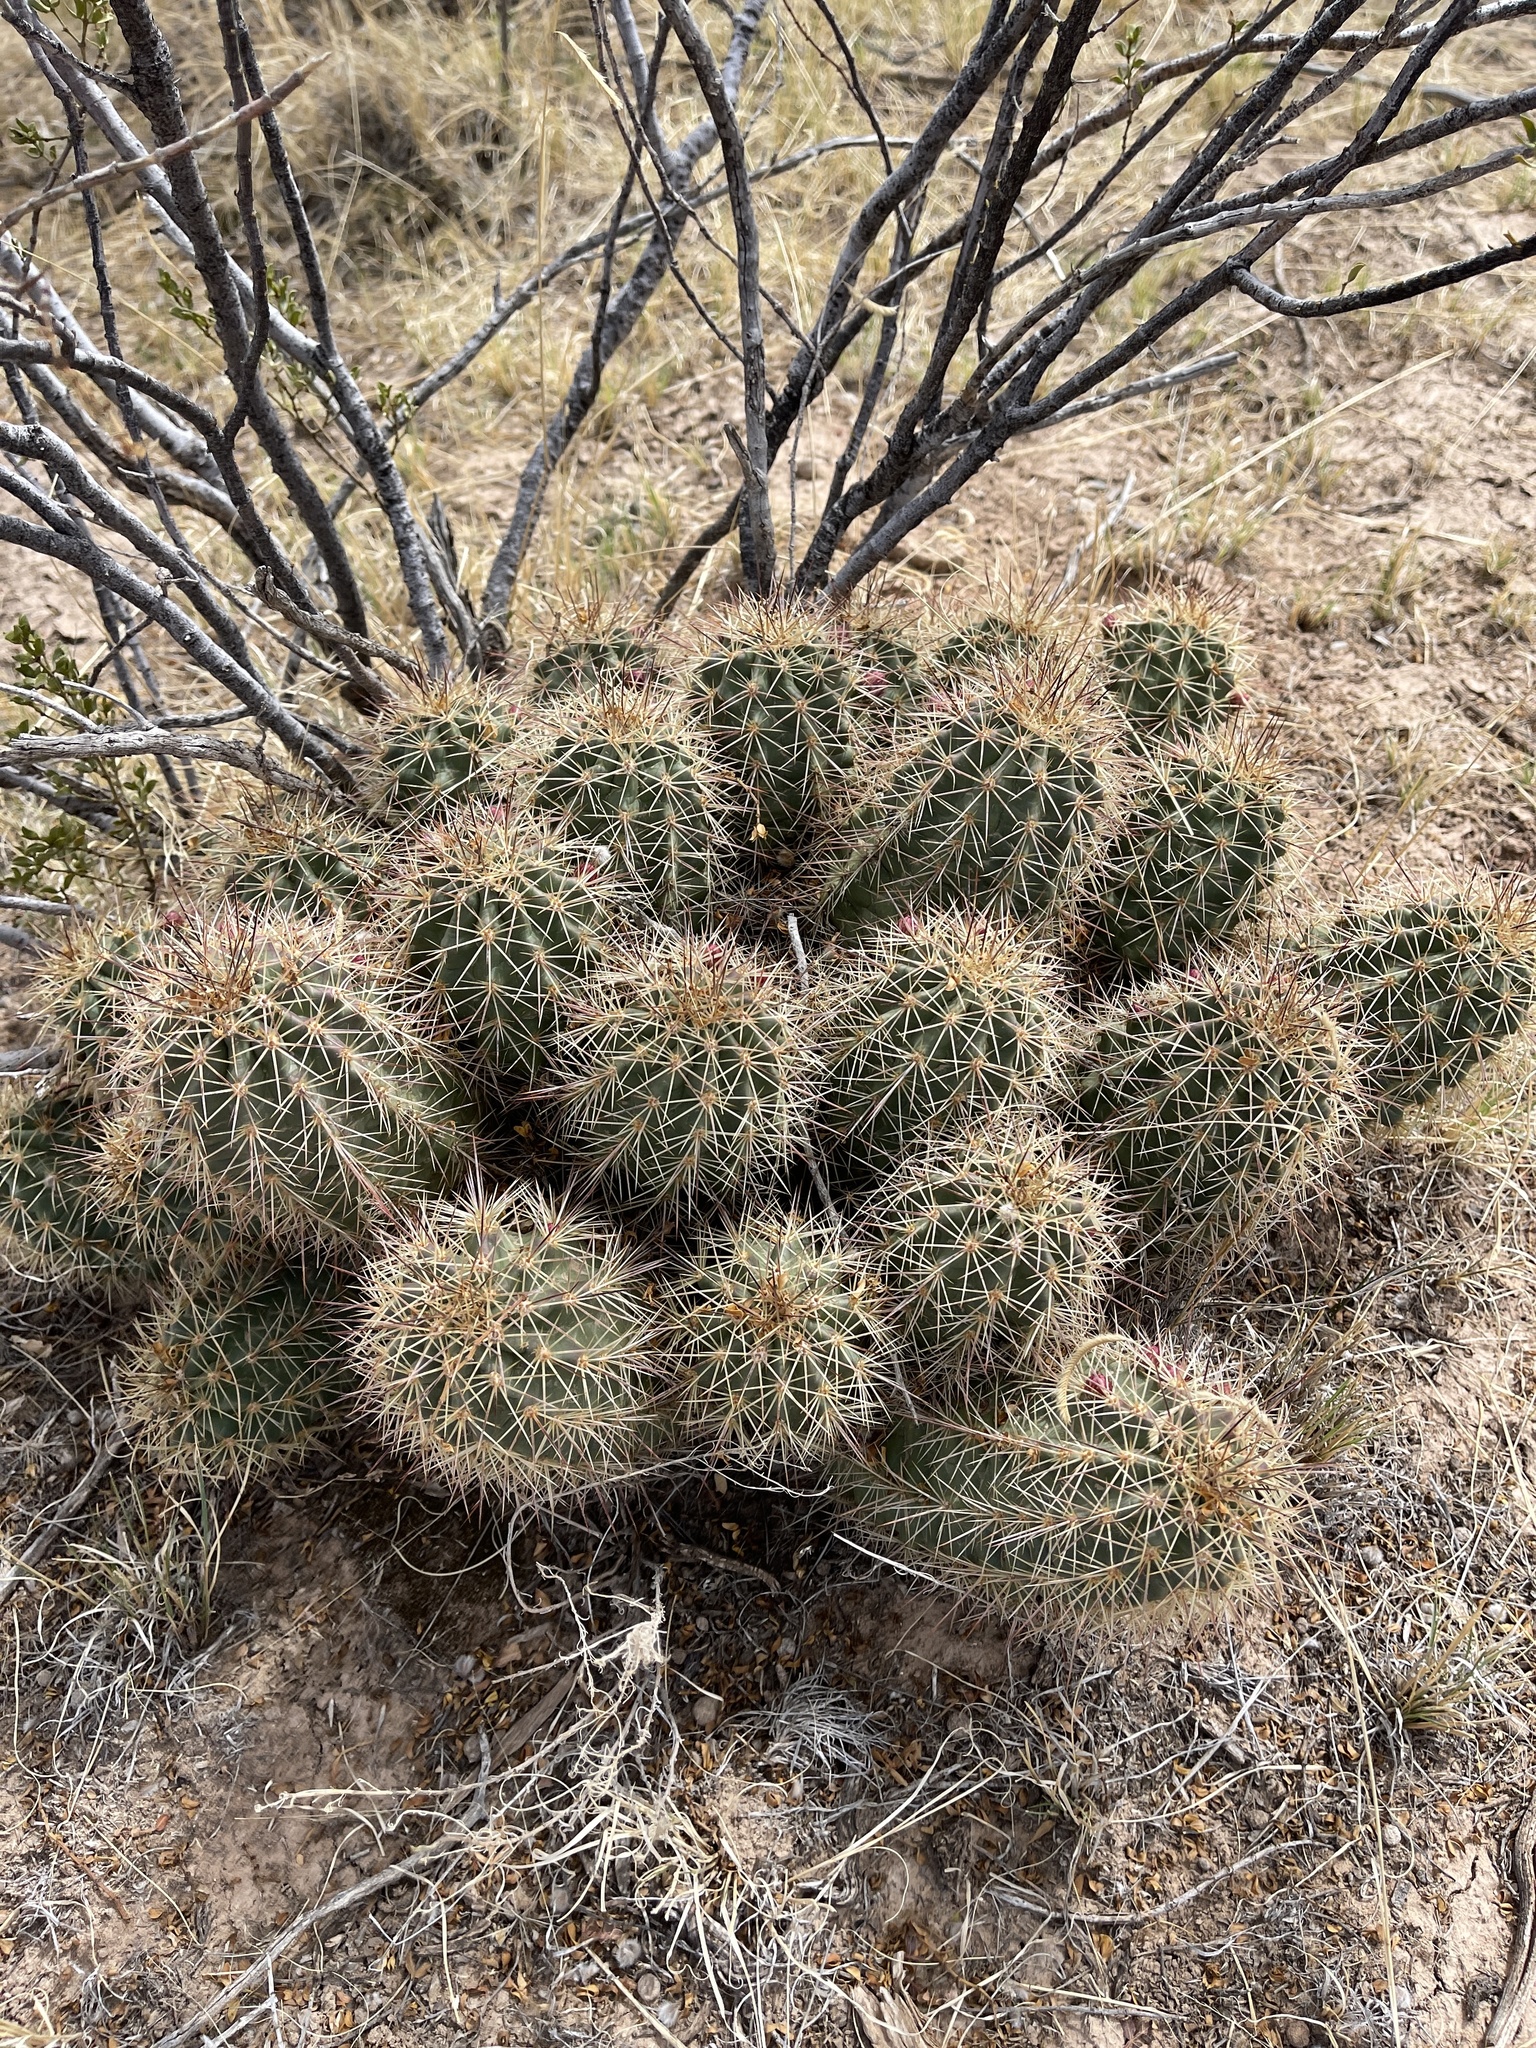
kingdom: Plantae
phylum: Tracheophyta
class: Magnoliopsida
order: Caryophyllales
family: Cactaceae
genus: Echinocereus
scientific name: Echinocereus coccineus
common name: Scarlet hedgehog cactus
